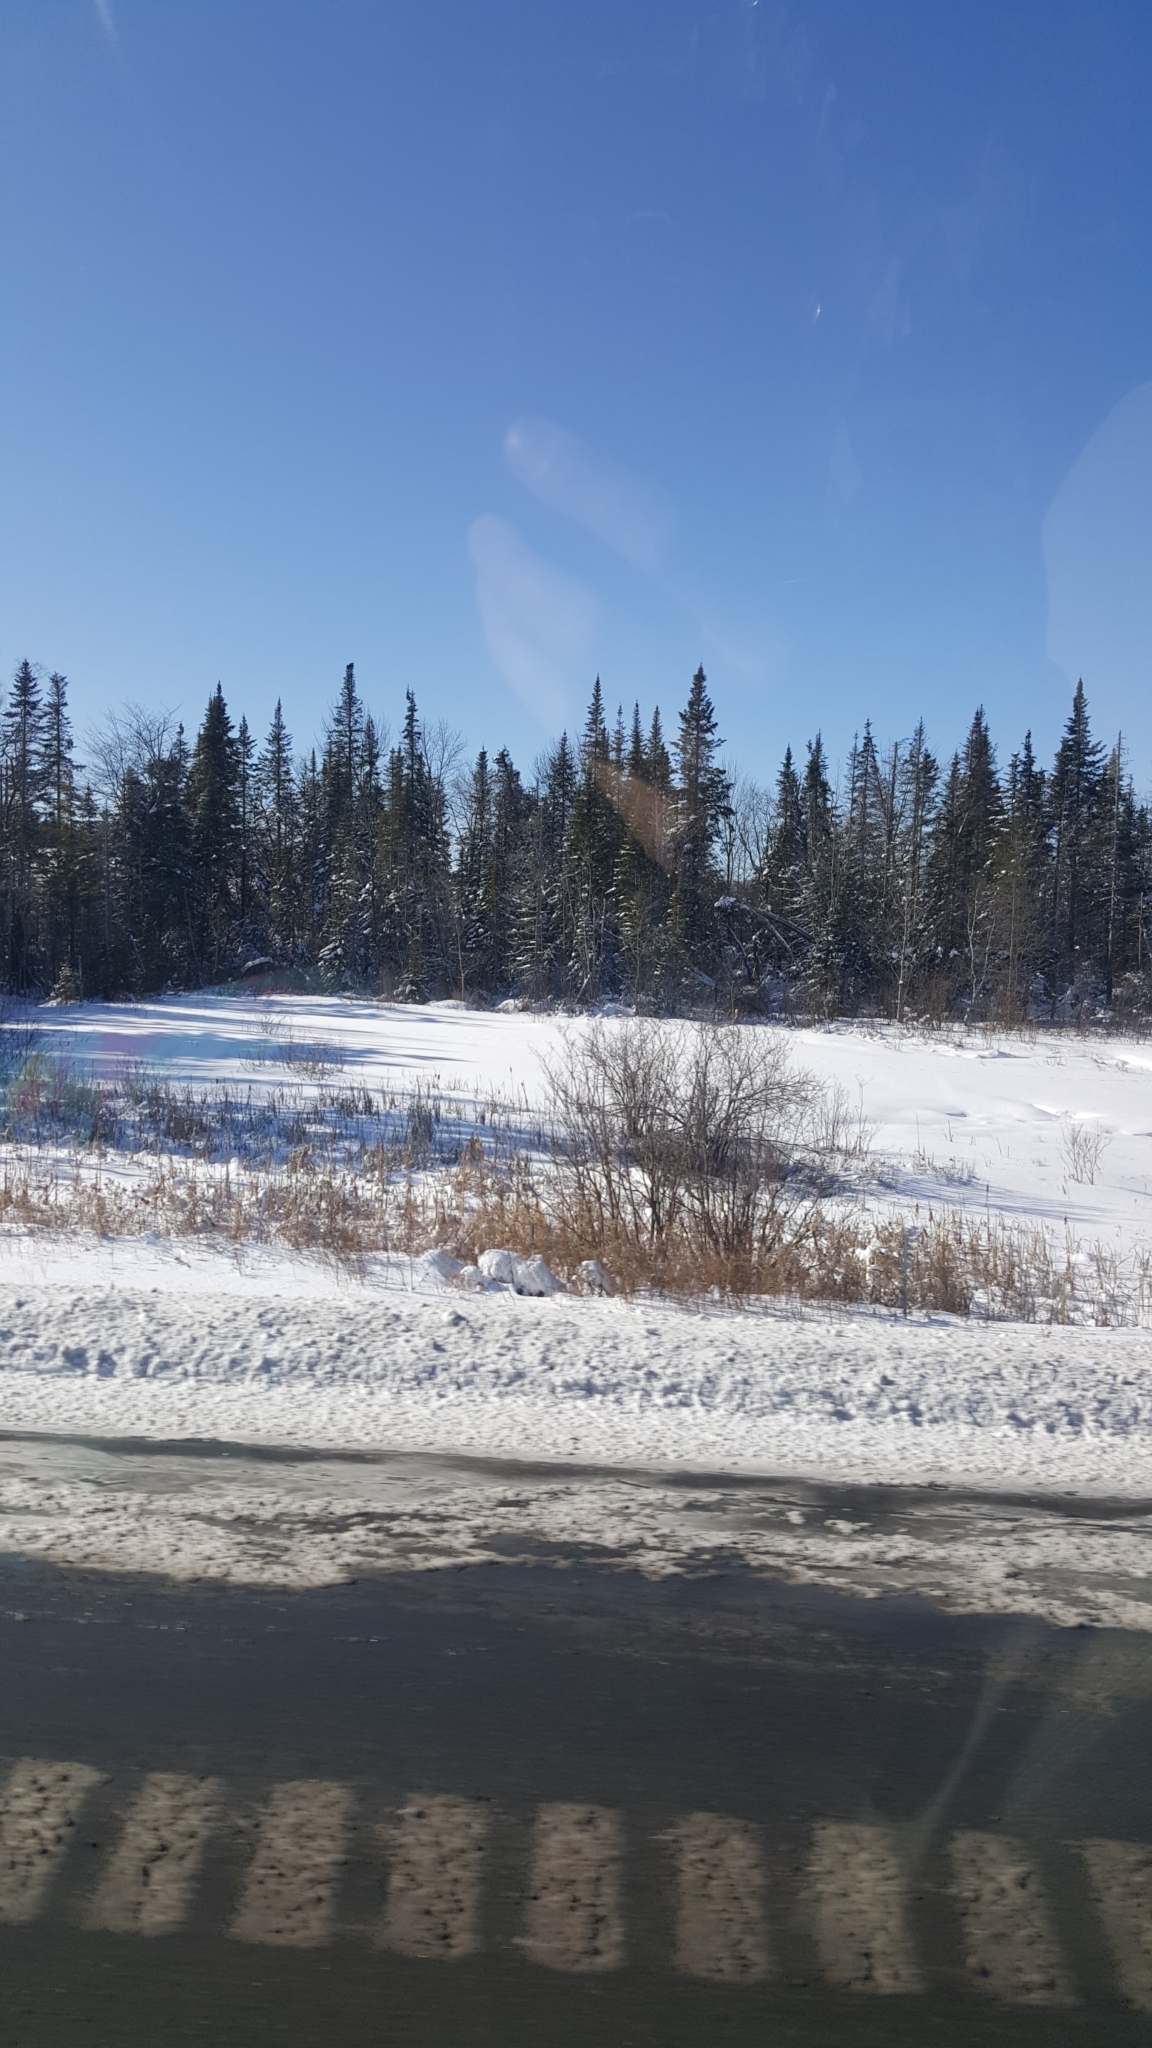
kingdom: Plantae
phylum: Tracheophyta
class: Pinopsida
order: Pinales
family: Pinaceae
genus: Abies
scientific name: Abies balsamea
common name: Balsam fir
